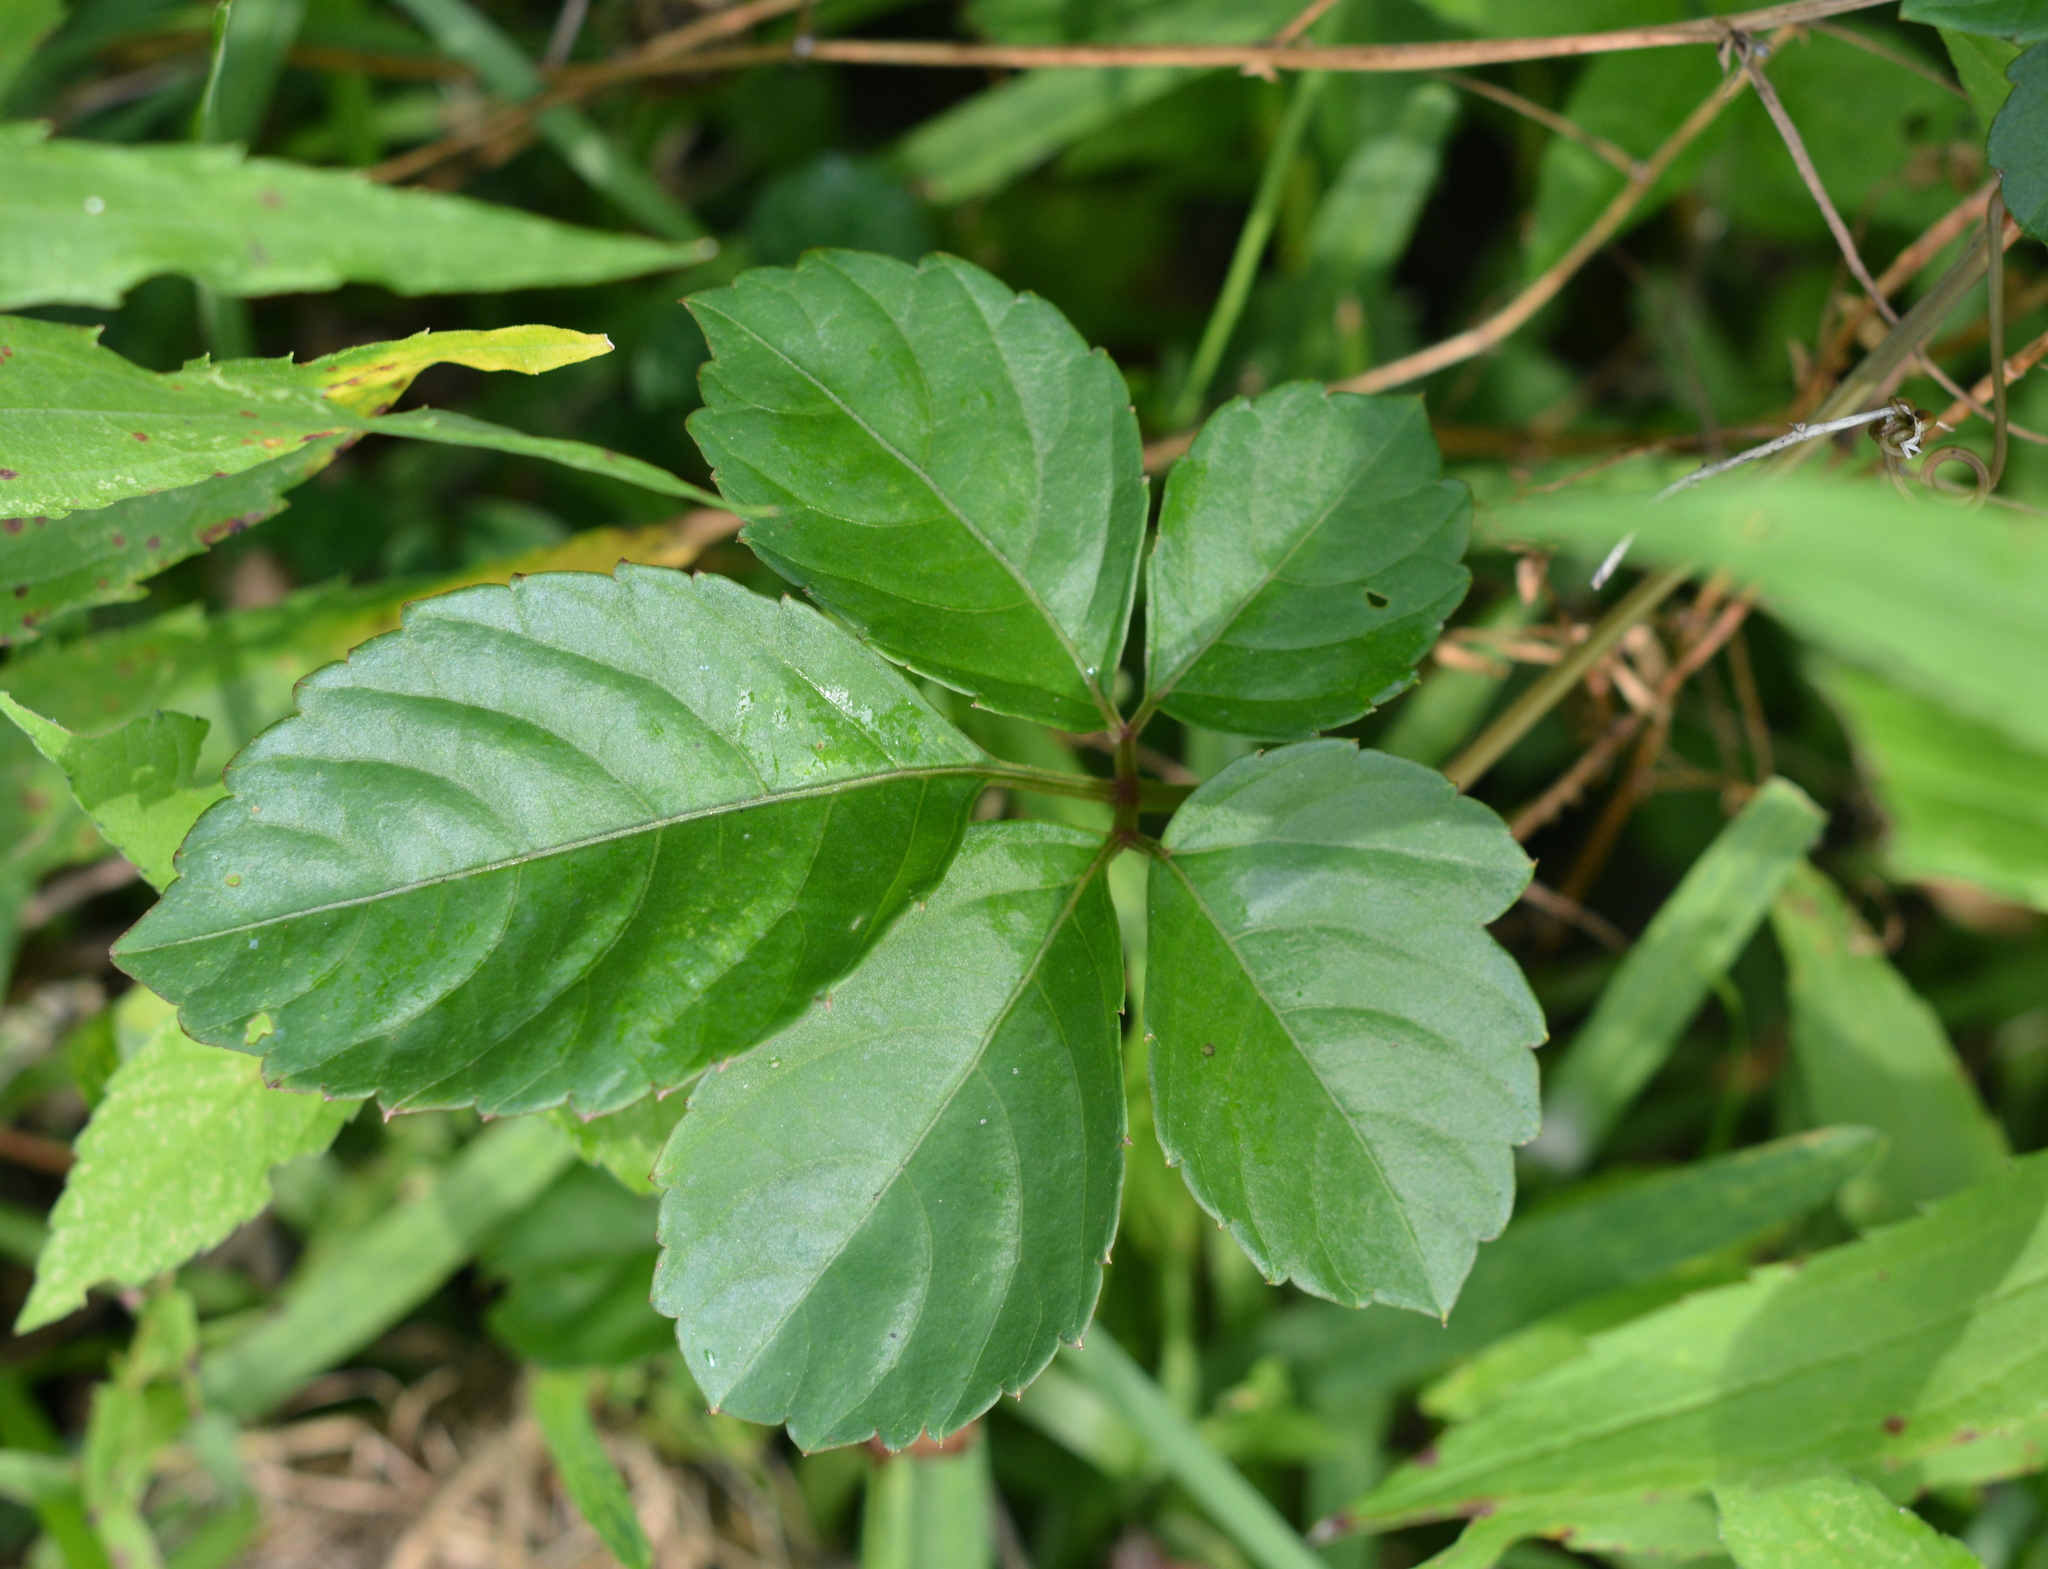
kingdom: Plantae
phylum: Tracheophyta
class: Magnoliopsida
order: Vitales
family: Vitaceae
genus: Causonis
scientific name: Causonis japonica
